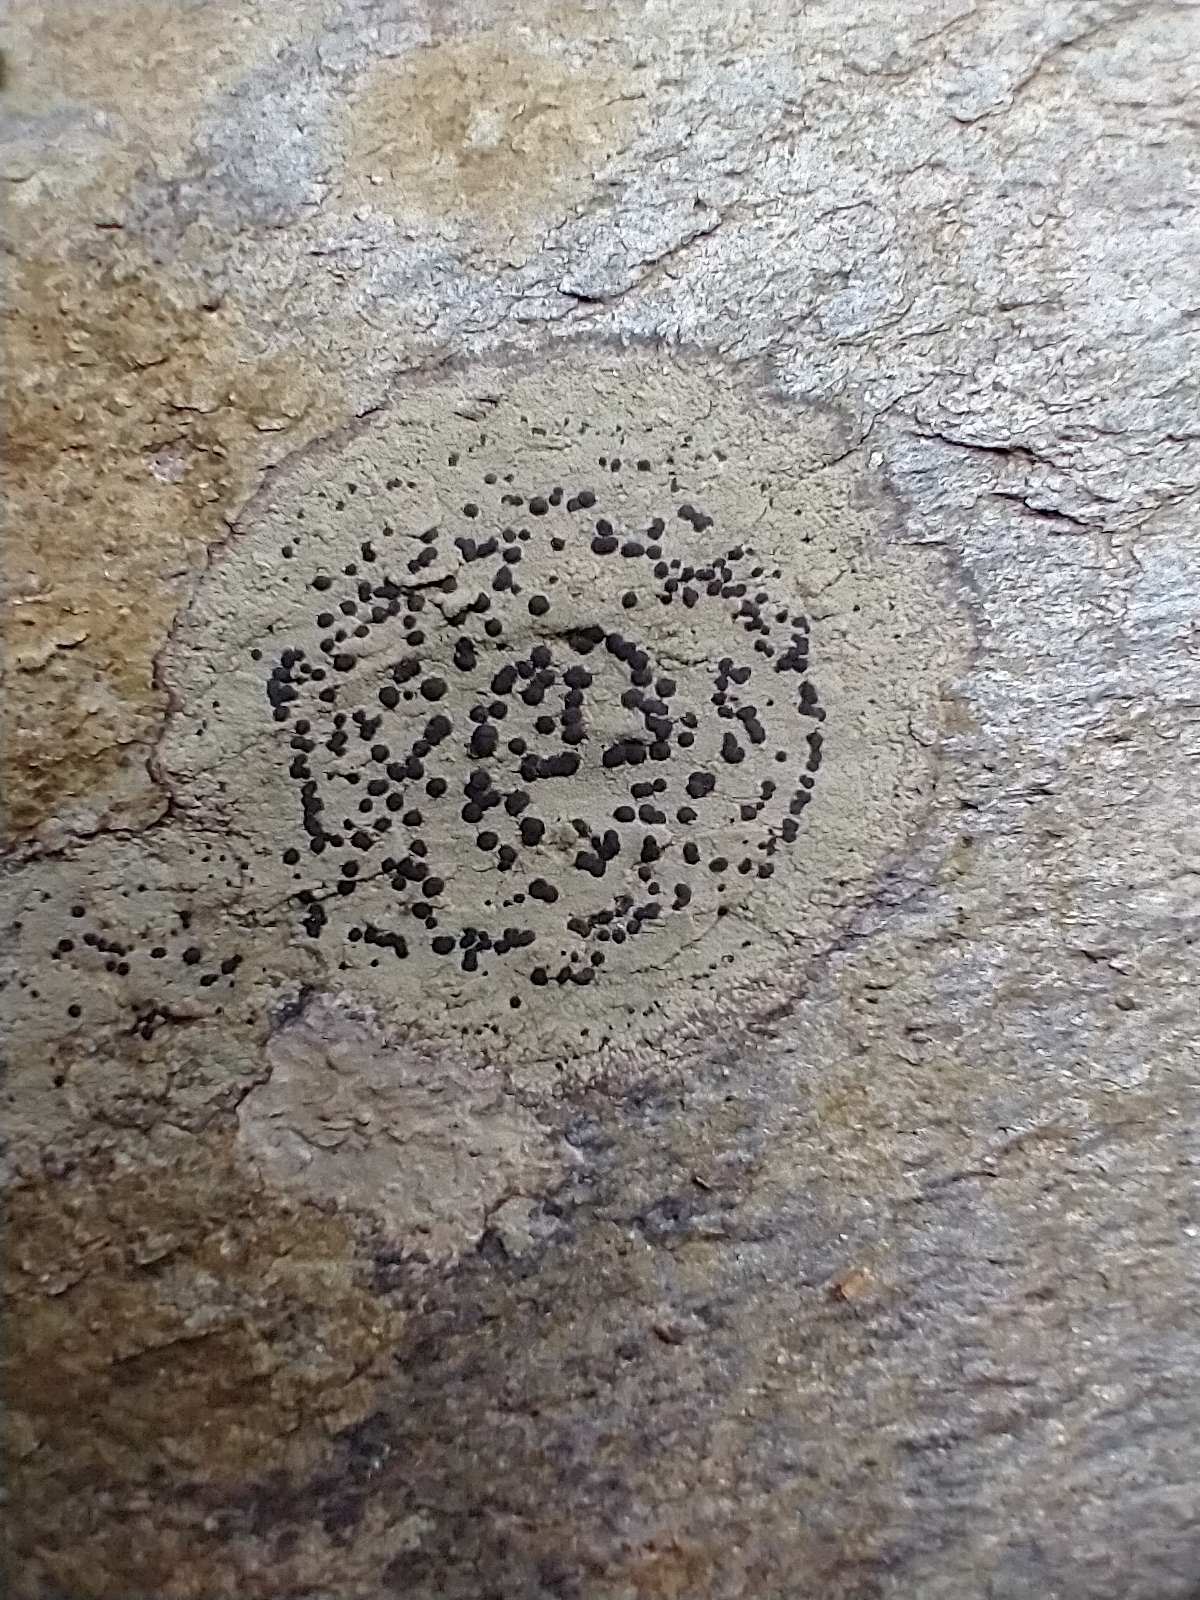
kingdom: Fungi
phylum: Ascomycota
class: Lecanoromycetes
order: Lecideales
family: Lecideaceae
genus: Porpidia
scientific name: Porpidia crustulata
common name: Concentric boulder lichen
